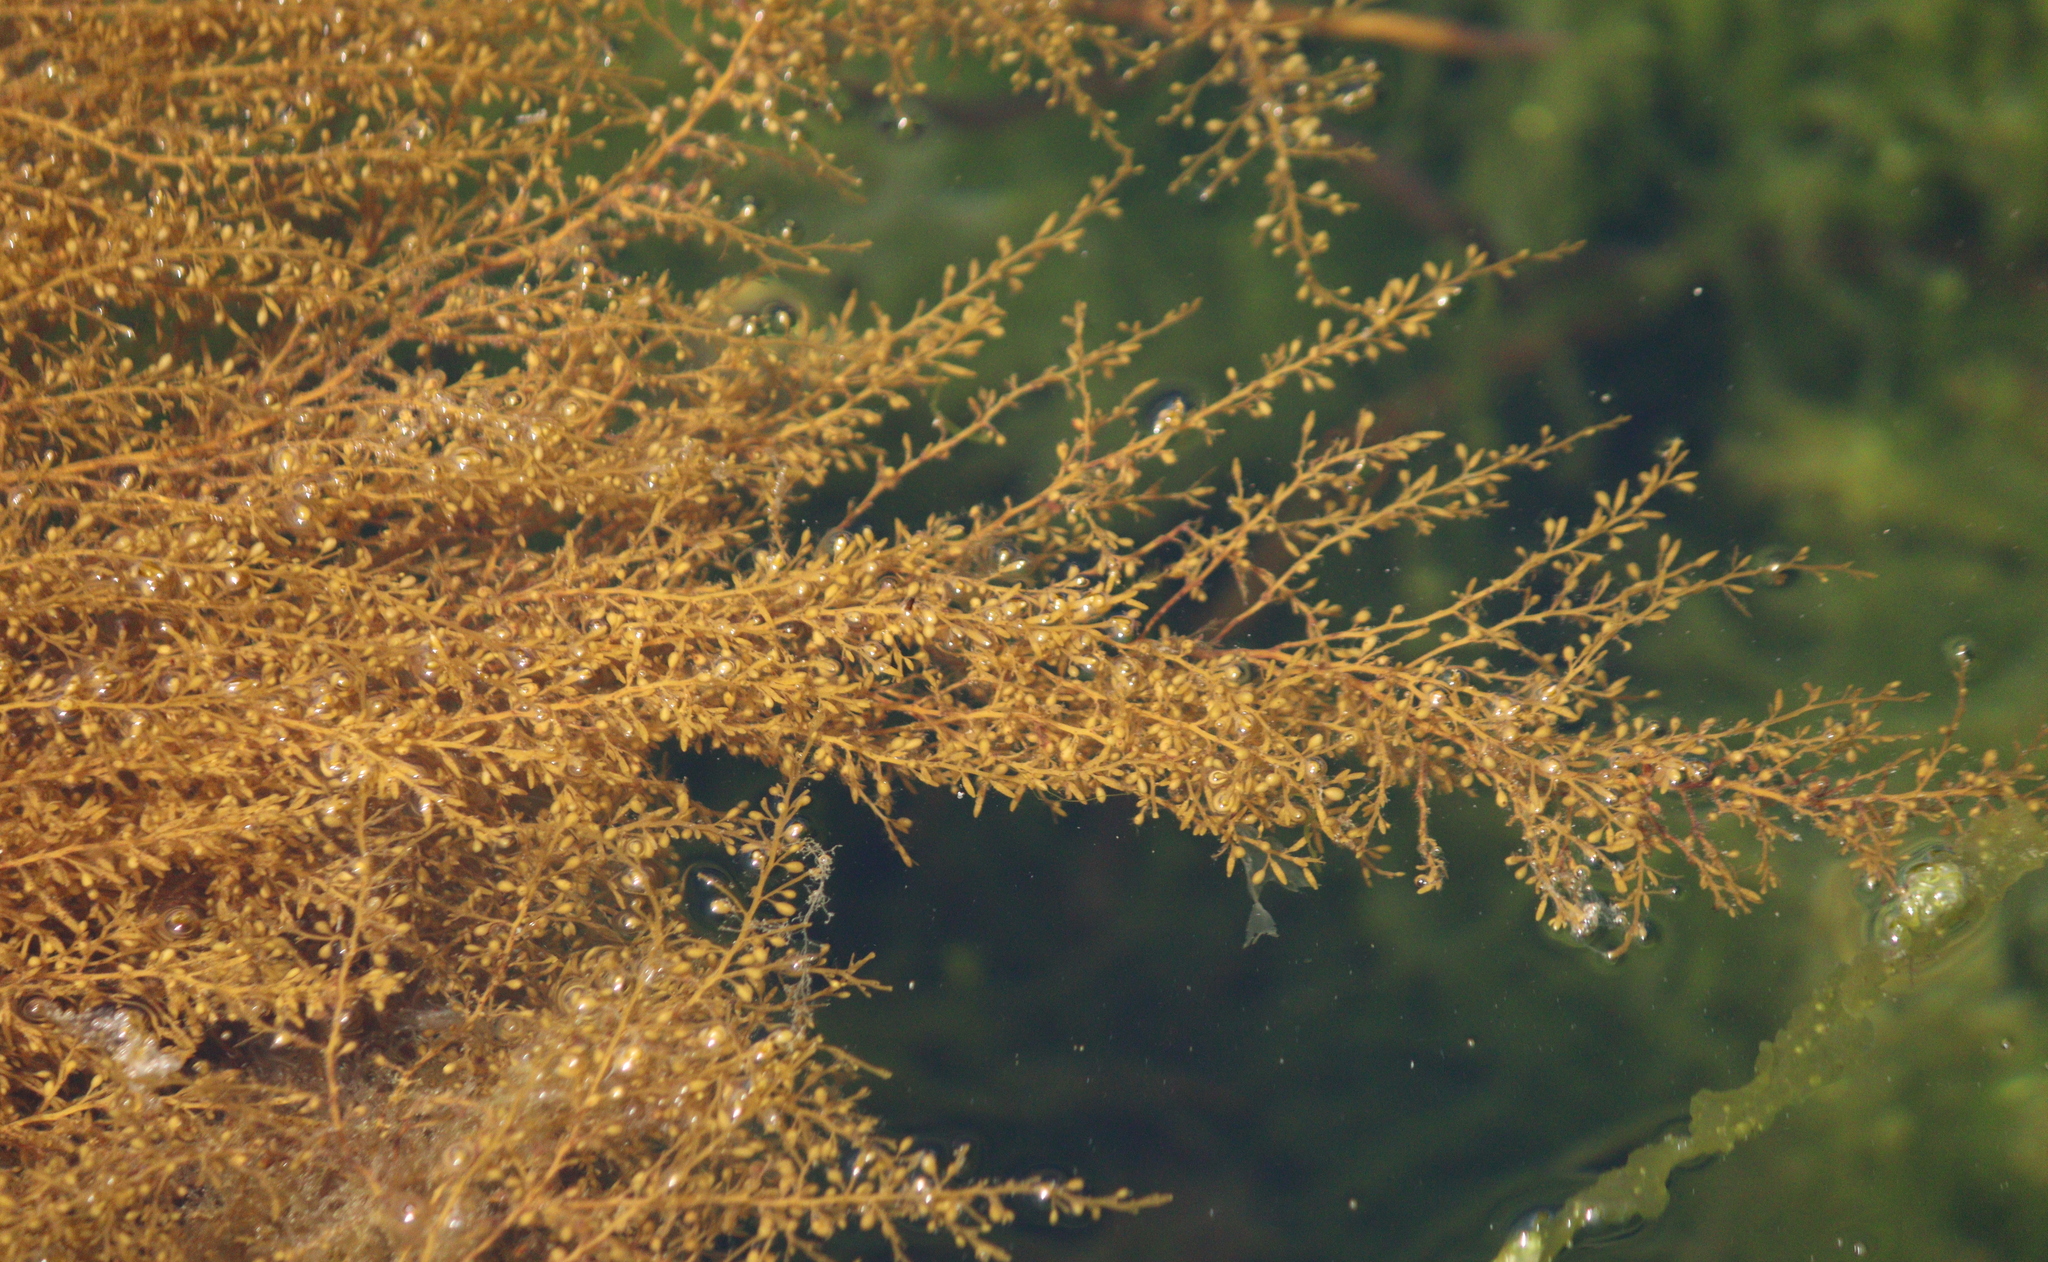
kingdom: Chromista
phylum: Ochrophyta
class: Phaeophyceae
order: Fucales
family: Sargassaceae
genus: Sargassum
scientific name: Sargassum muticum
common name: Japweed
